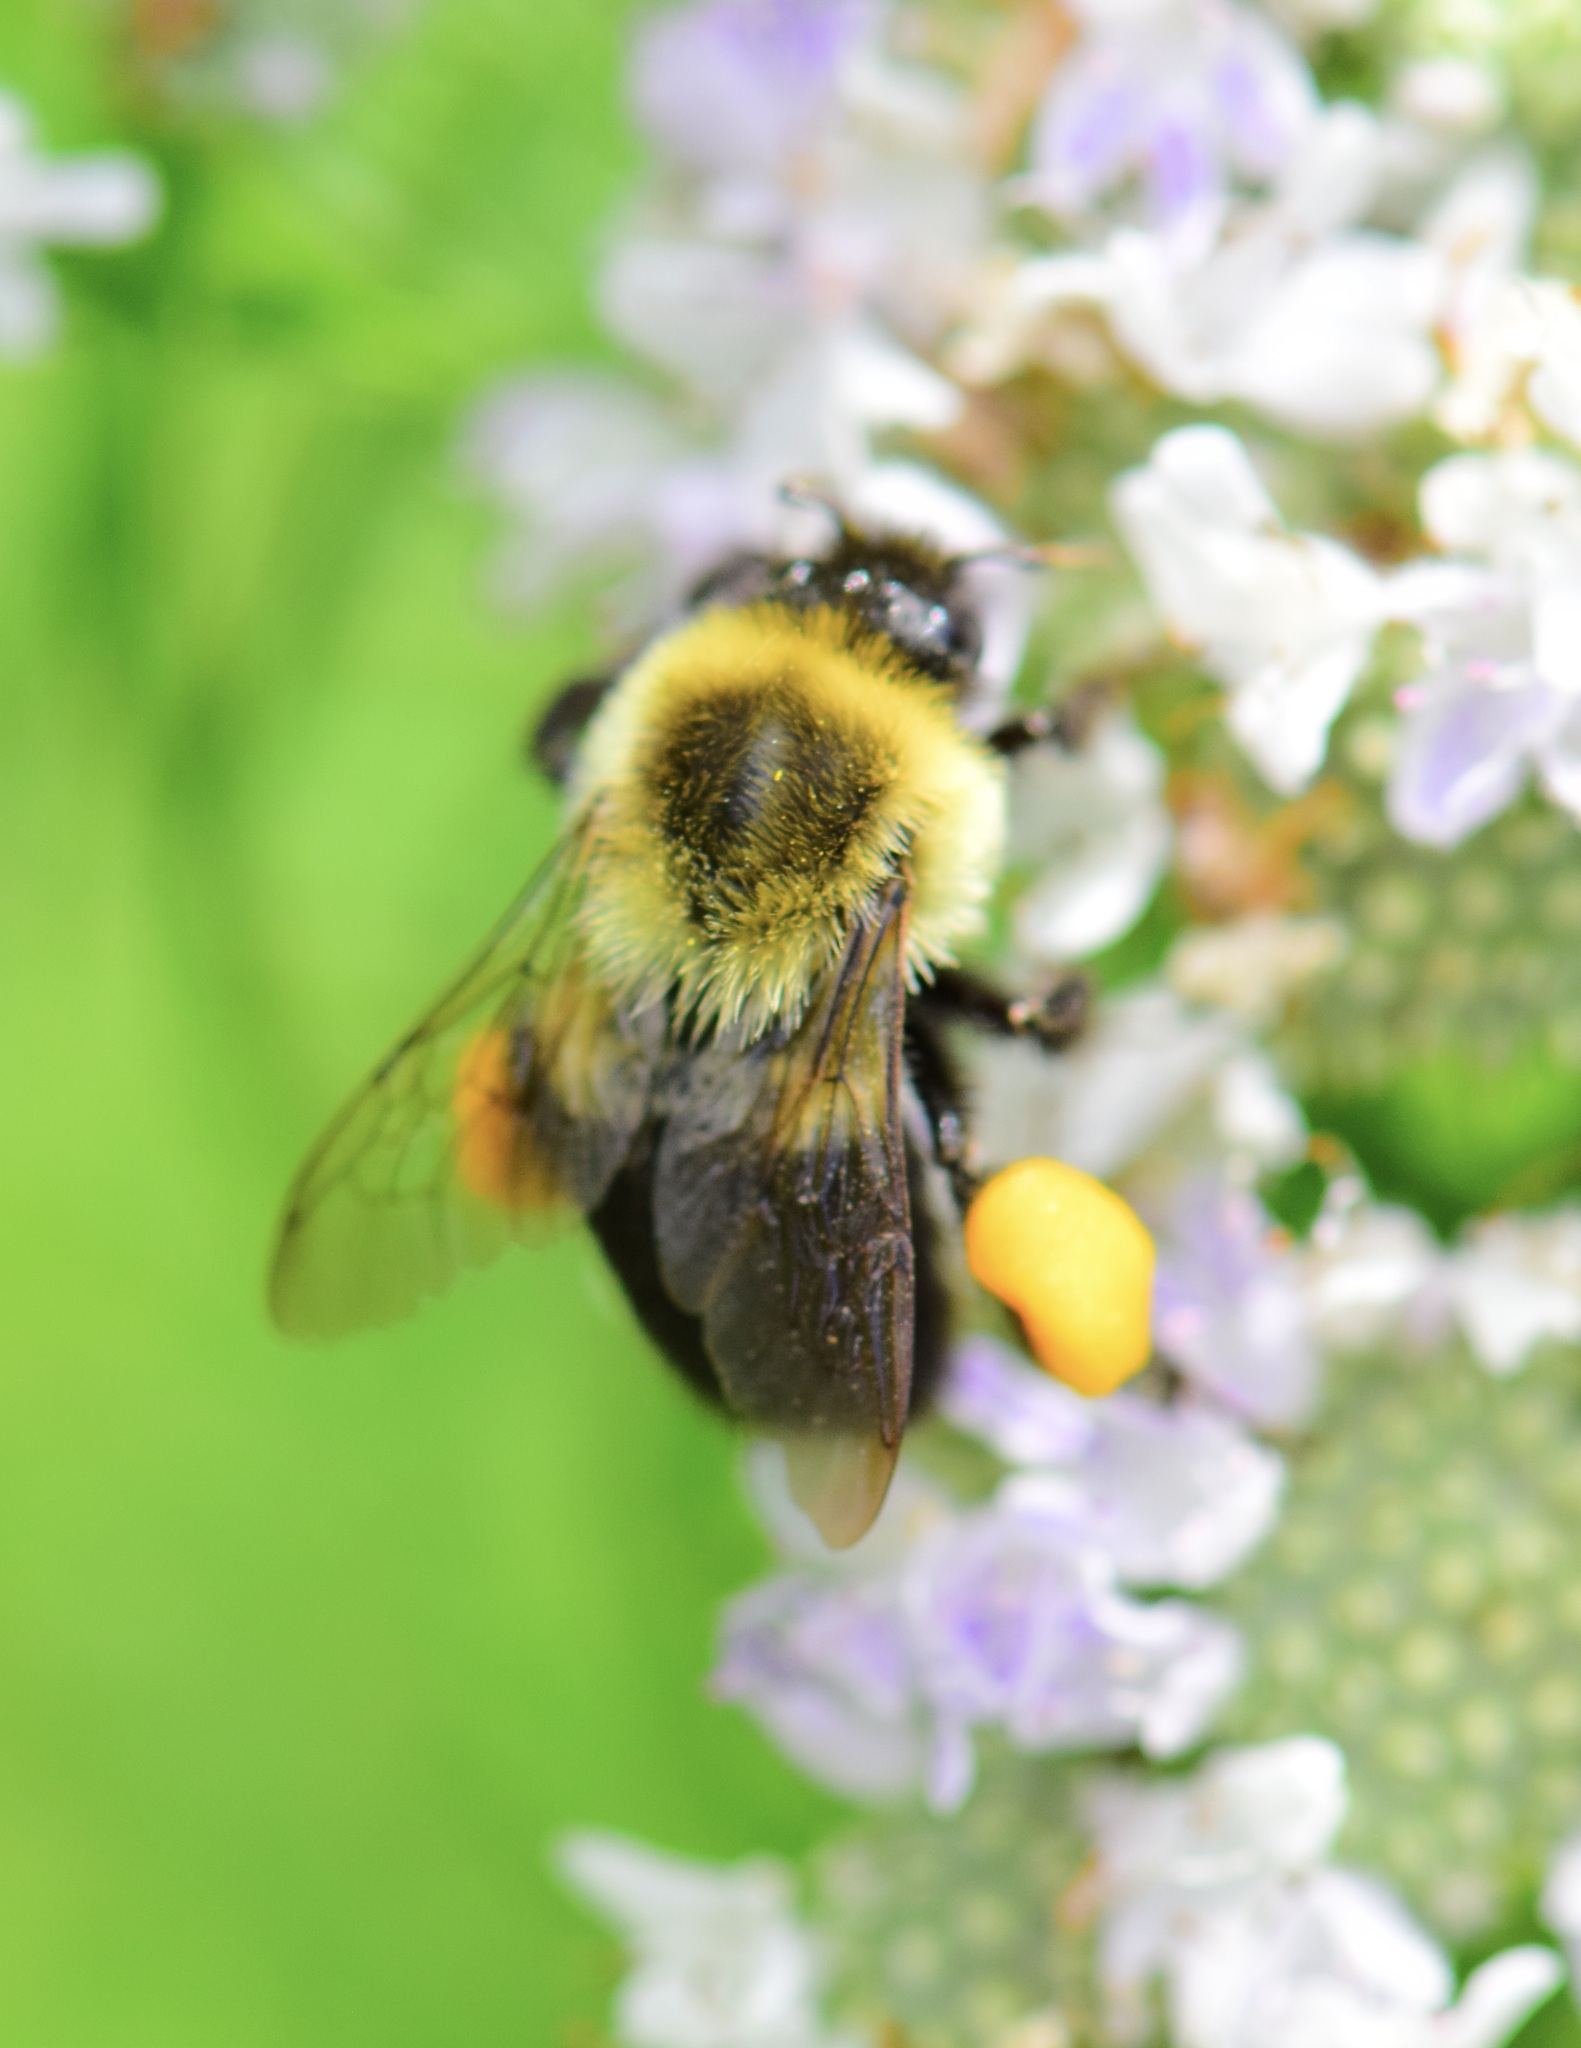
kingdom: Animalia
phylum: Arthropoda
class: Insecta
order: Hymenoptera
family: Apidae
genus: Bombus
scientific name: Bombus impatiens
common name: Common eastern bumble bee
